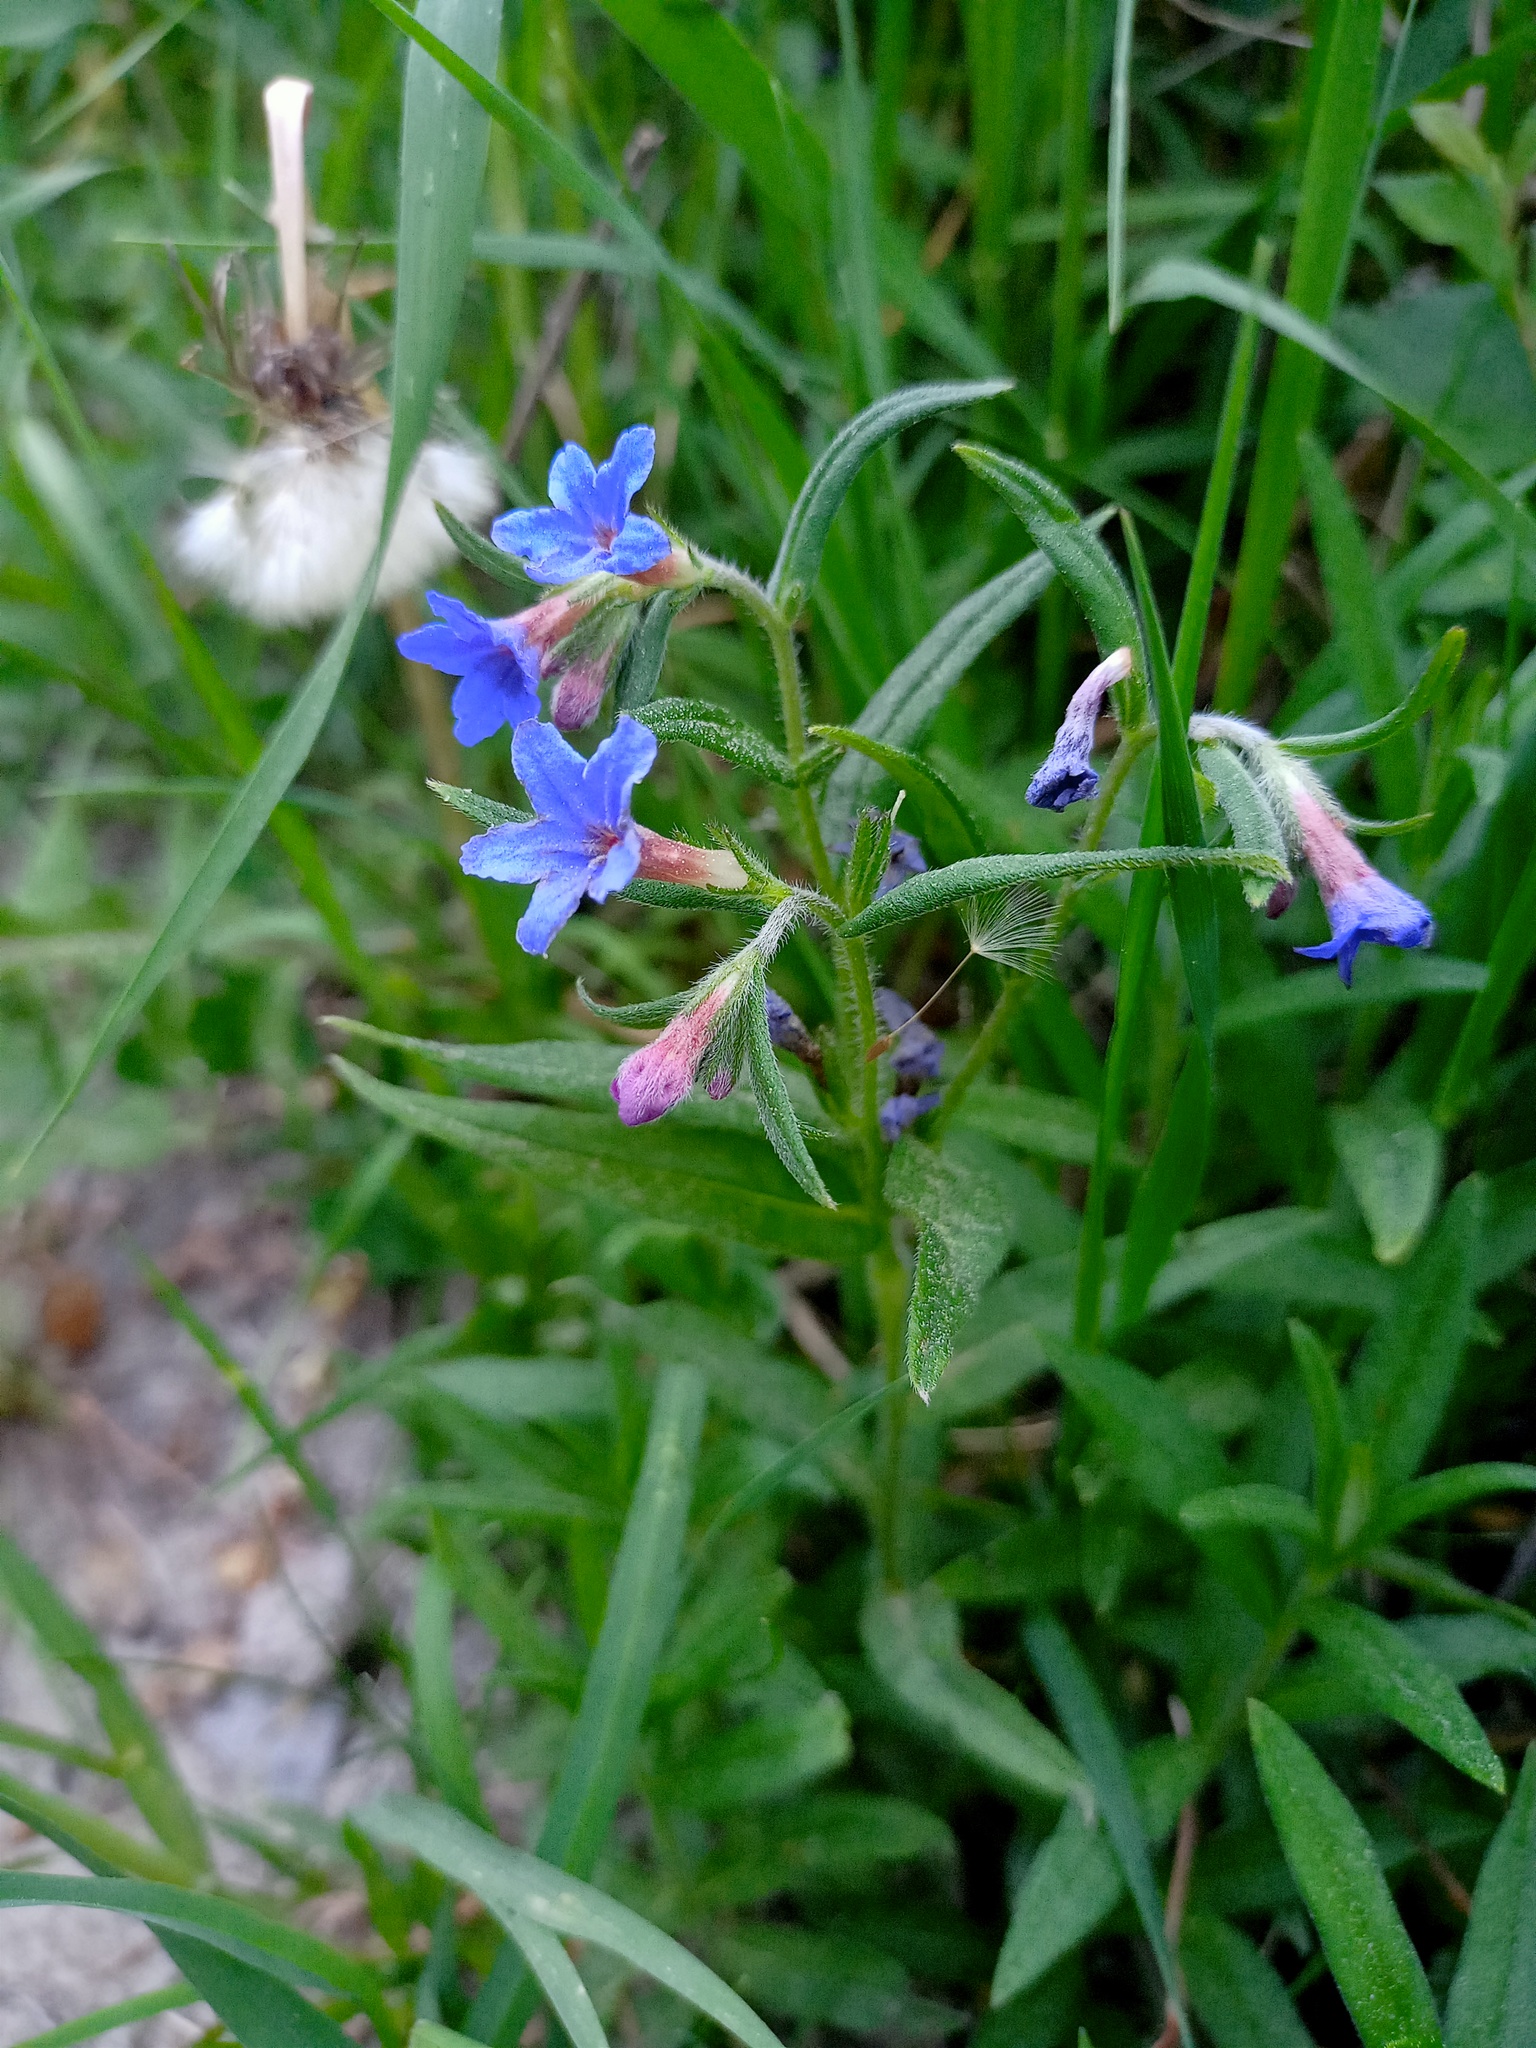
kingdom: Plantae
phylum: Tracheophyta
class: Magnoliopsida
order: Boraginales
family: Boraginaceae
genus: Aegonychon
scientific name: Aegonychon purpurocaeruleum
